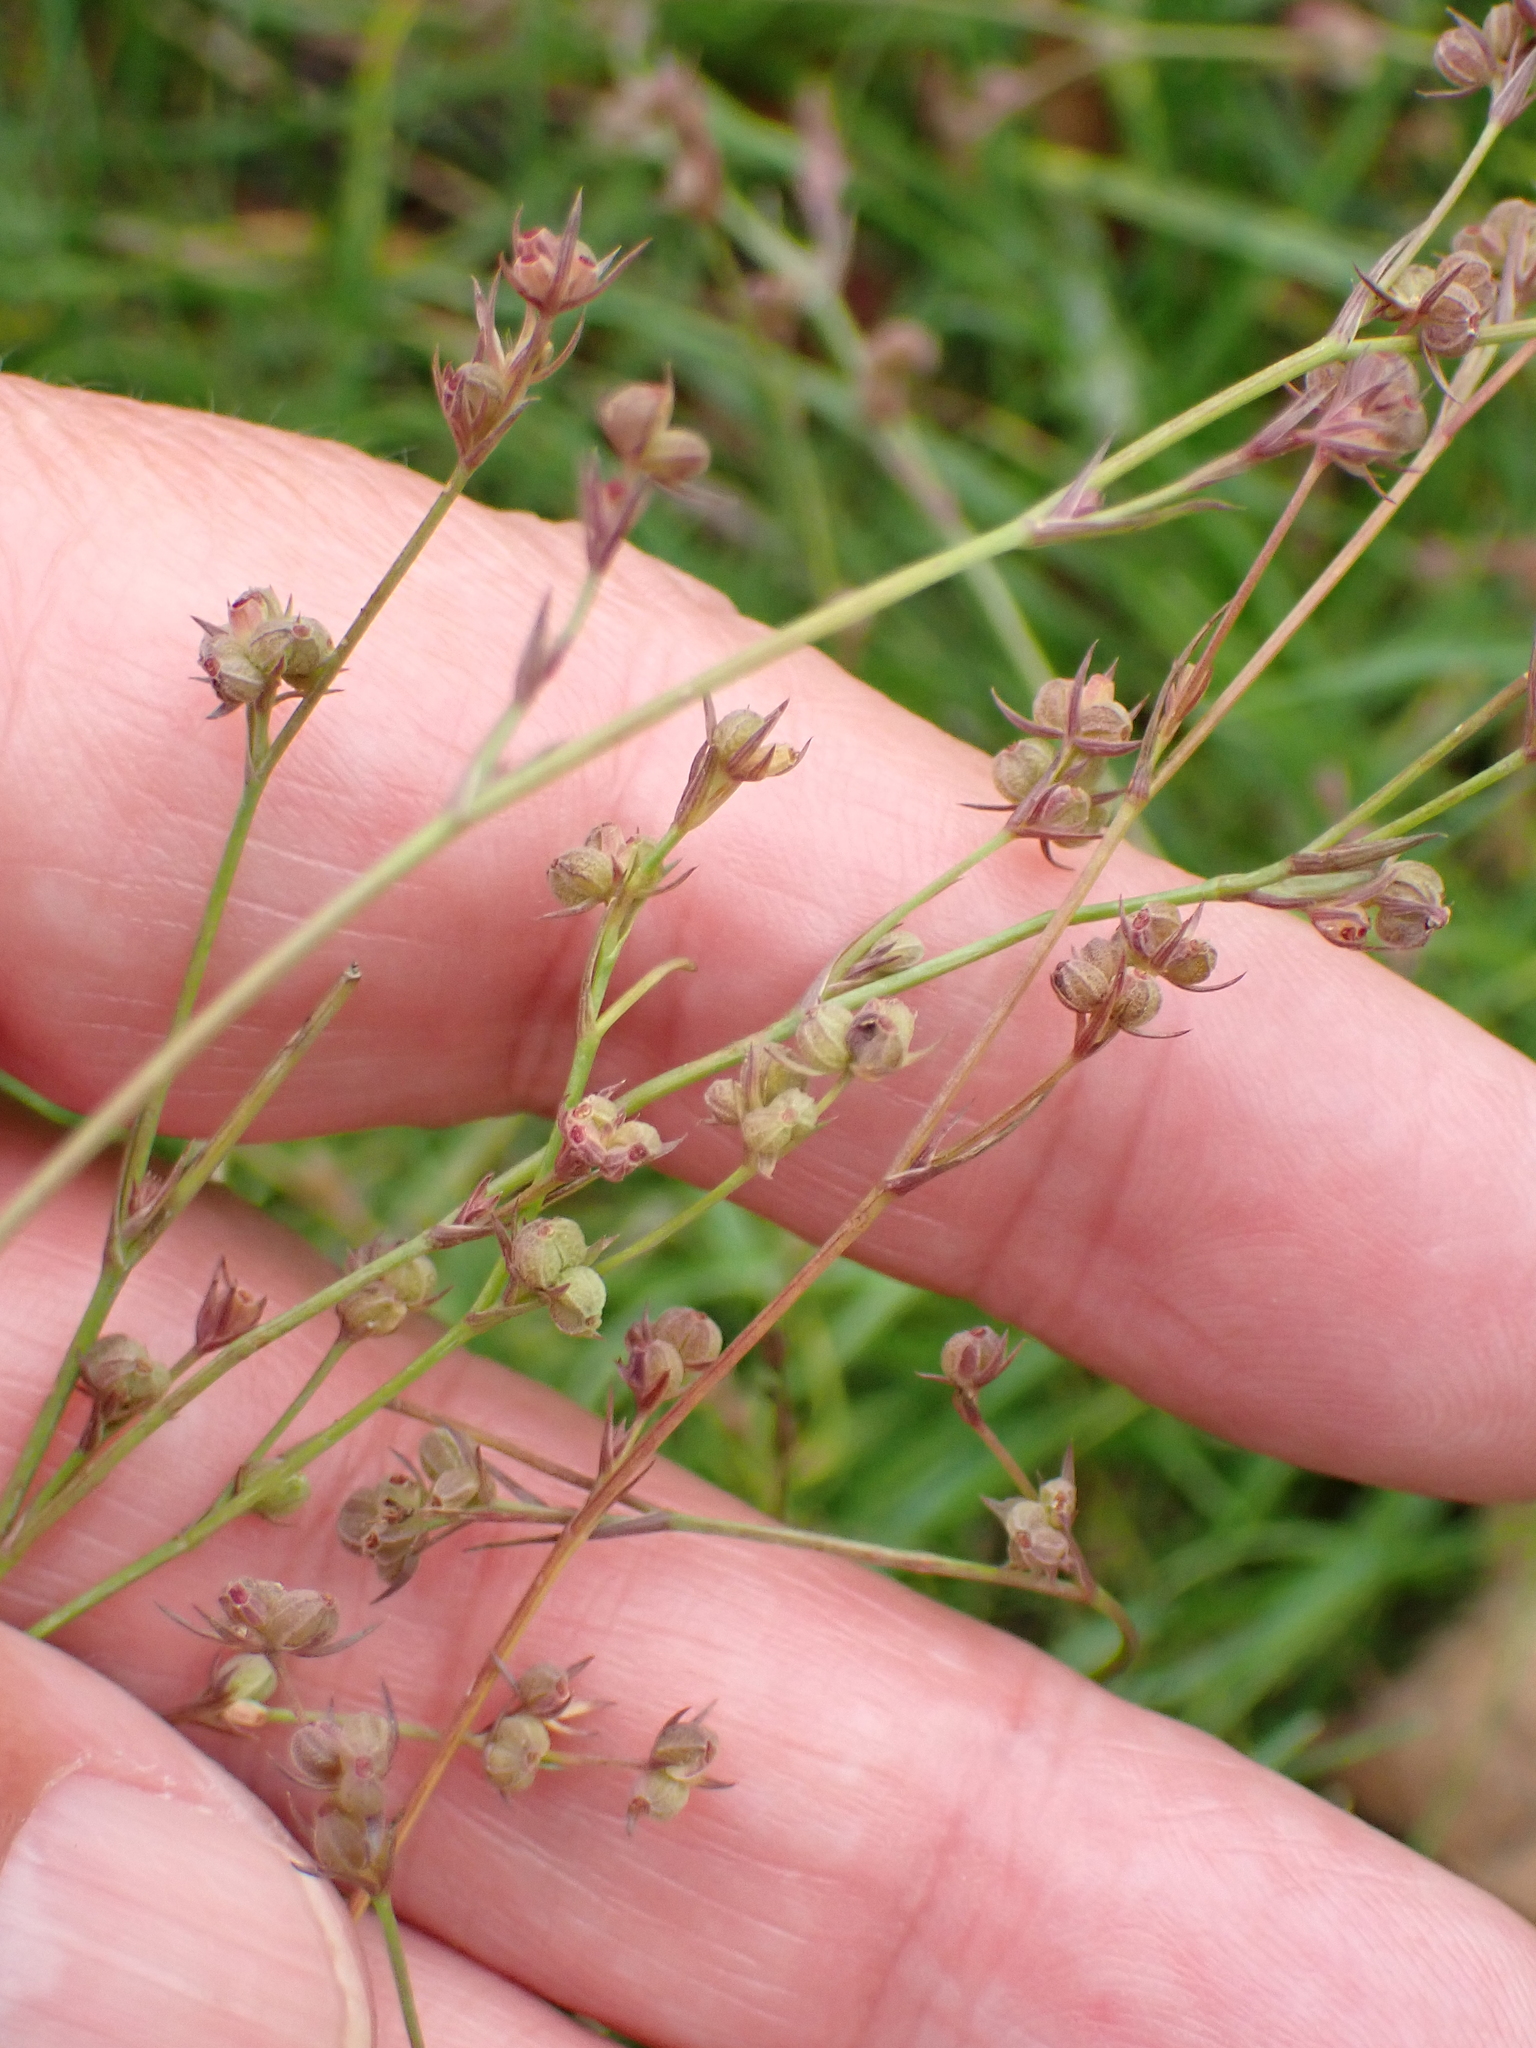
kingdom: Plantae
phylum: Tracheophyta
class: Magnoliopsida
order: Apiales
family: Apiaceae
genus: Bupleurum
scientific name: Bupleurum tenuissimum
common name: Slender hare's-ear
